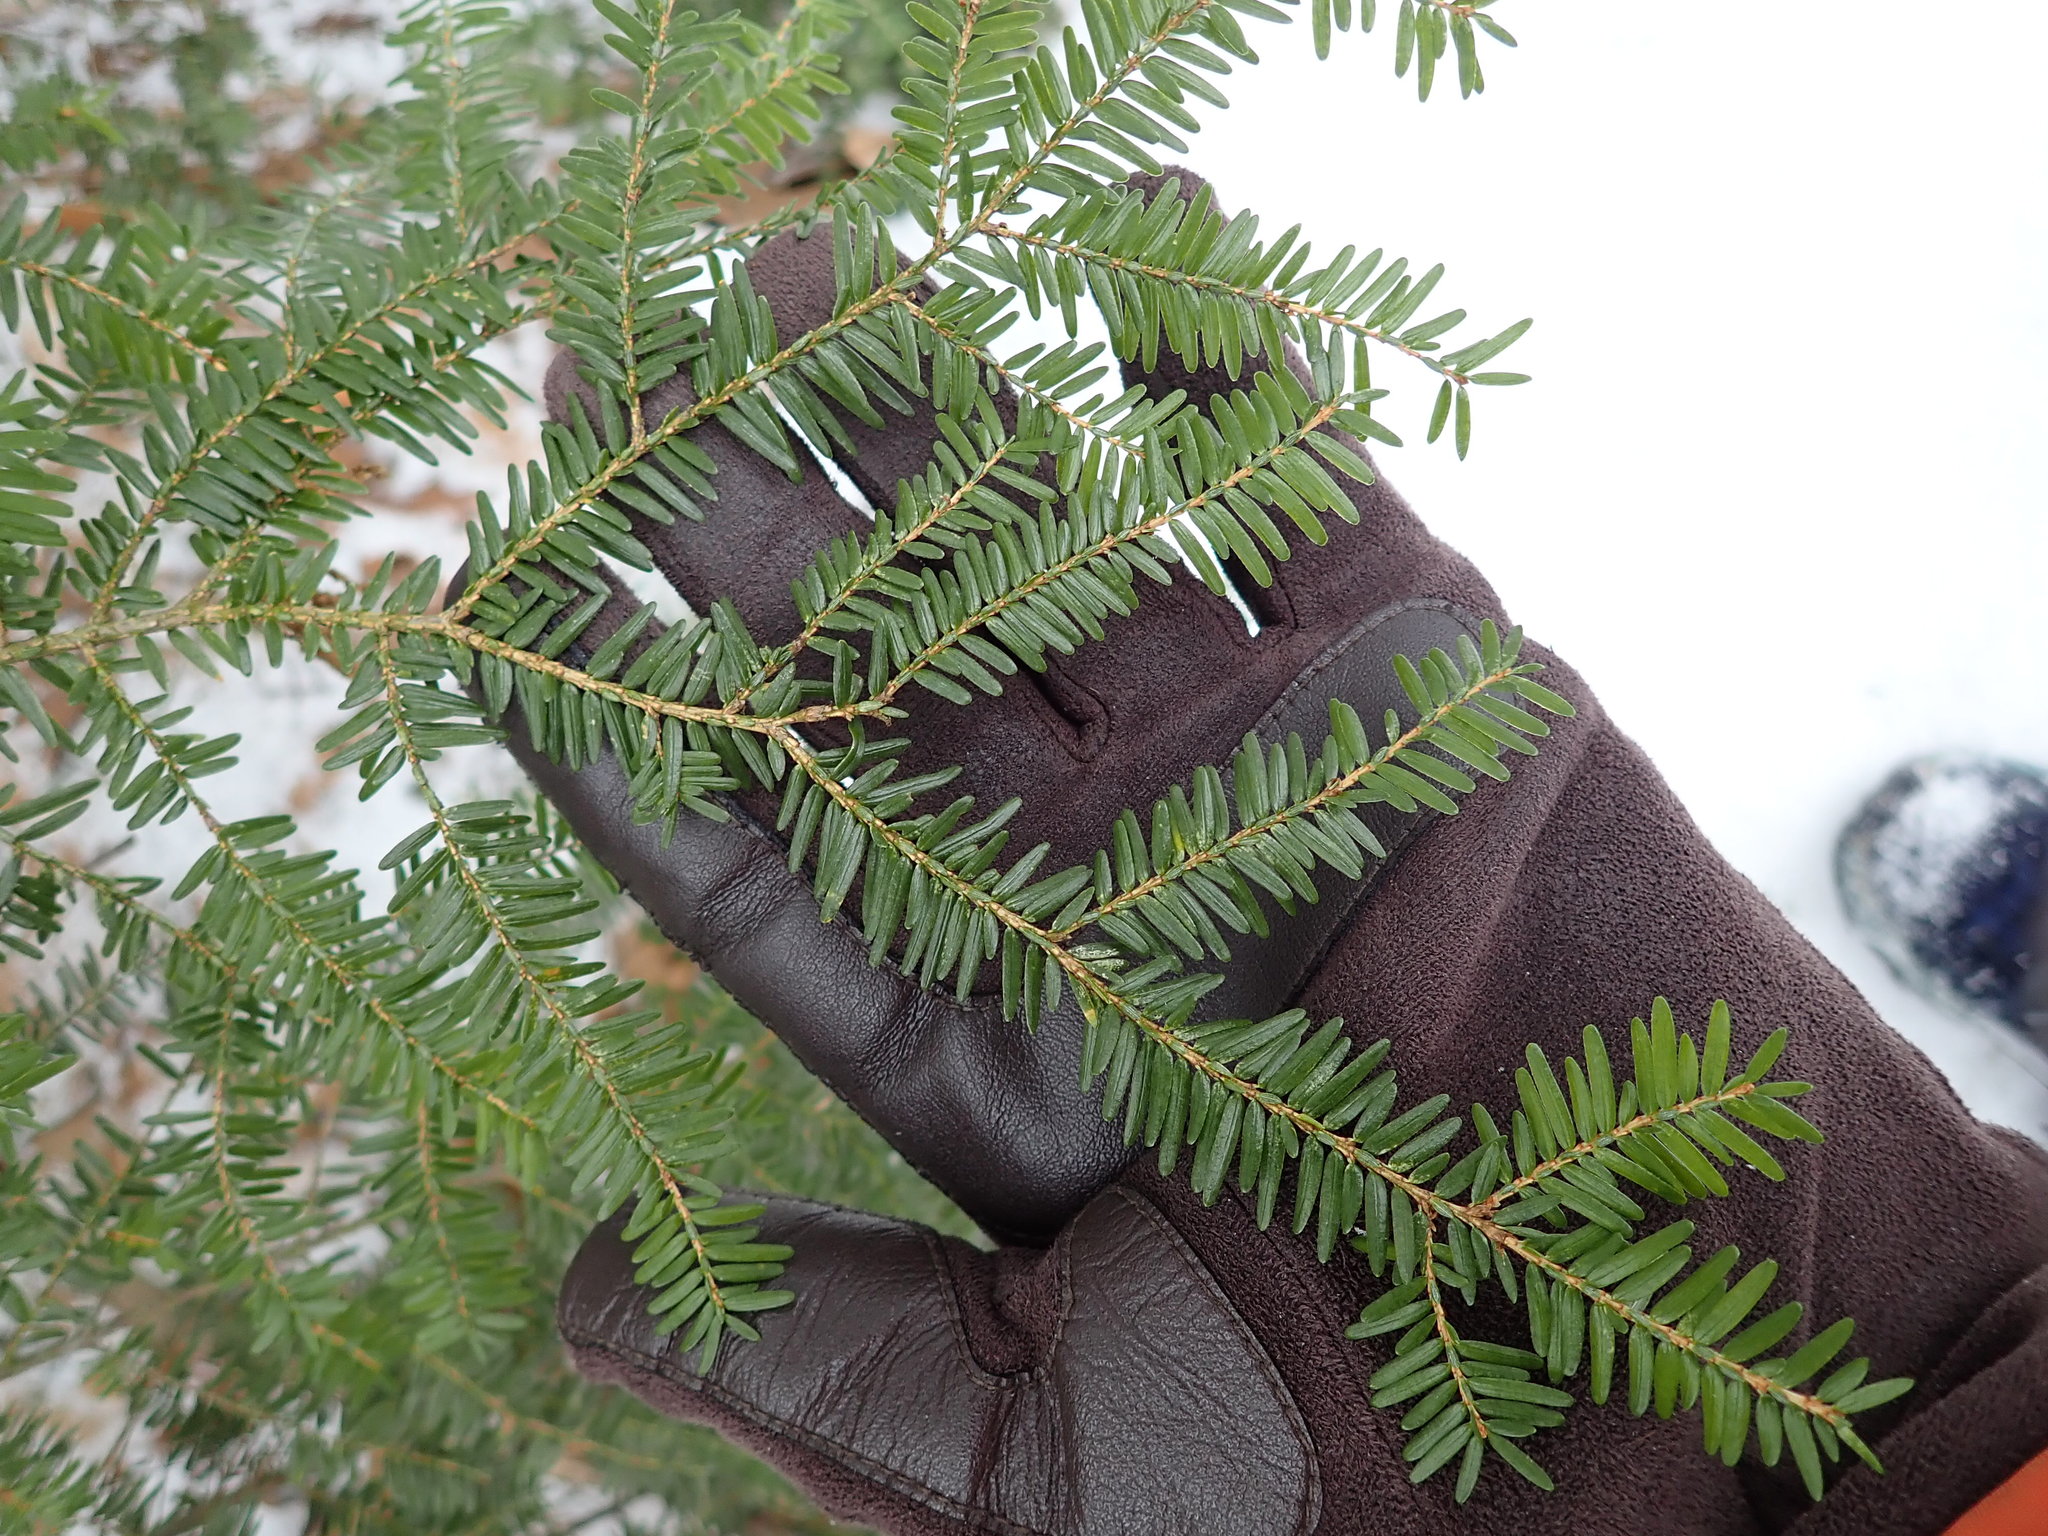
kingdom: Plantae
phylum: Tracheophyta
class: Pinopsida
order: Pinales
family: Pinaceae
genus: Tsuga
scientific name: Tsuga canadensis
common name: Eastern hemlock
